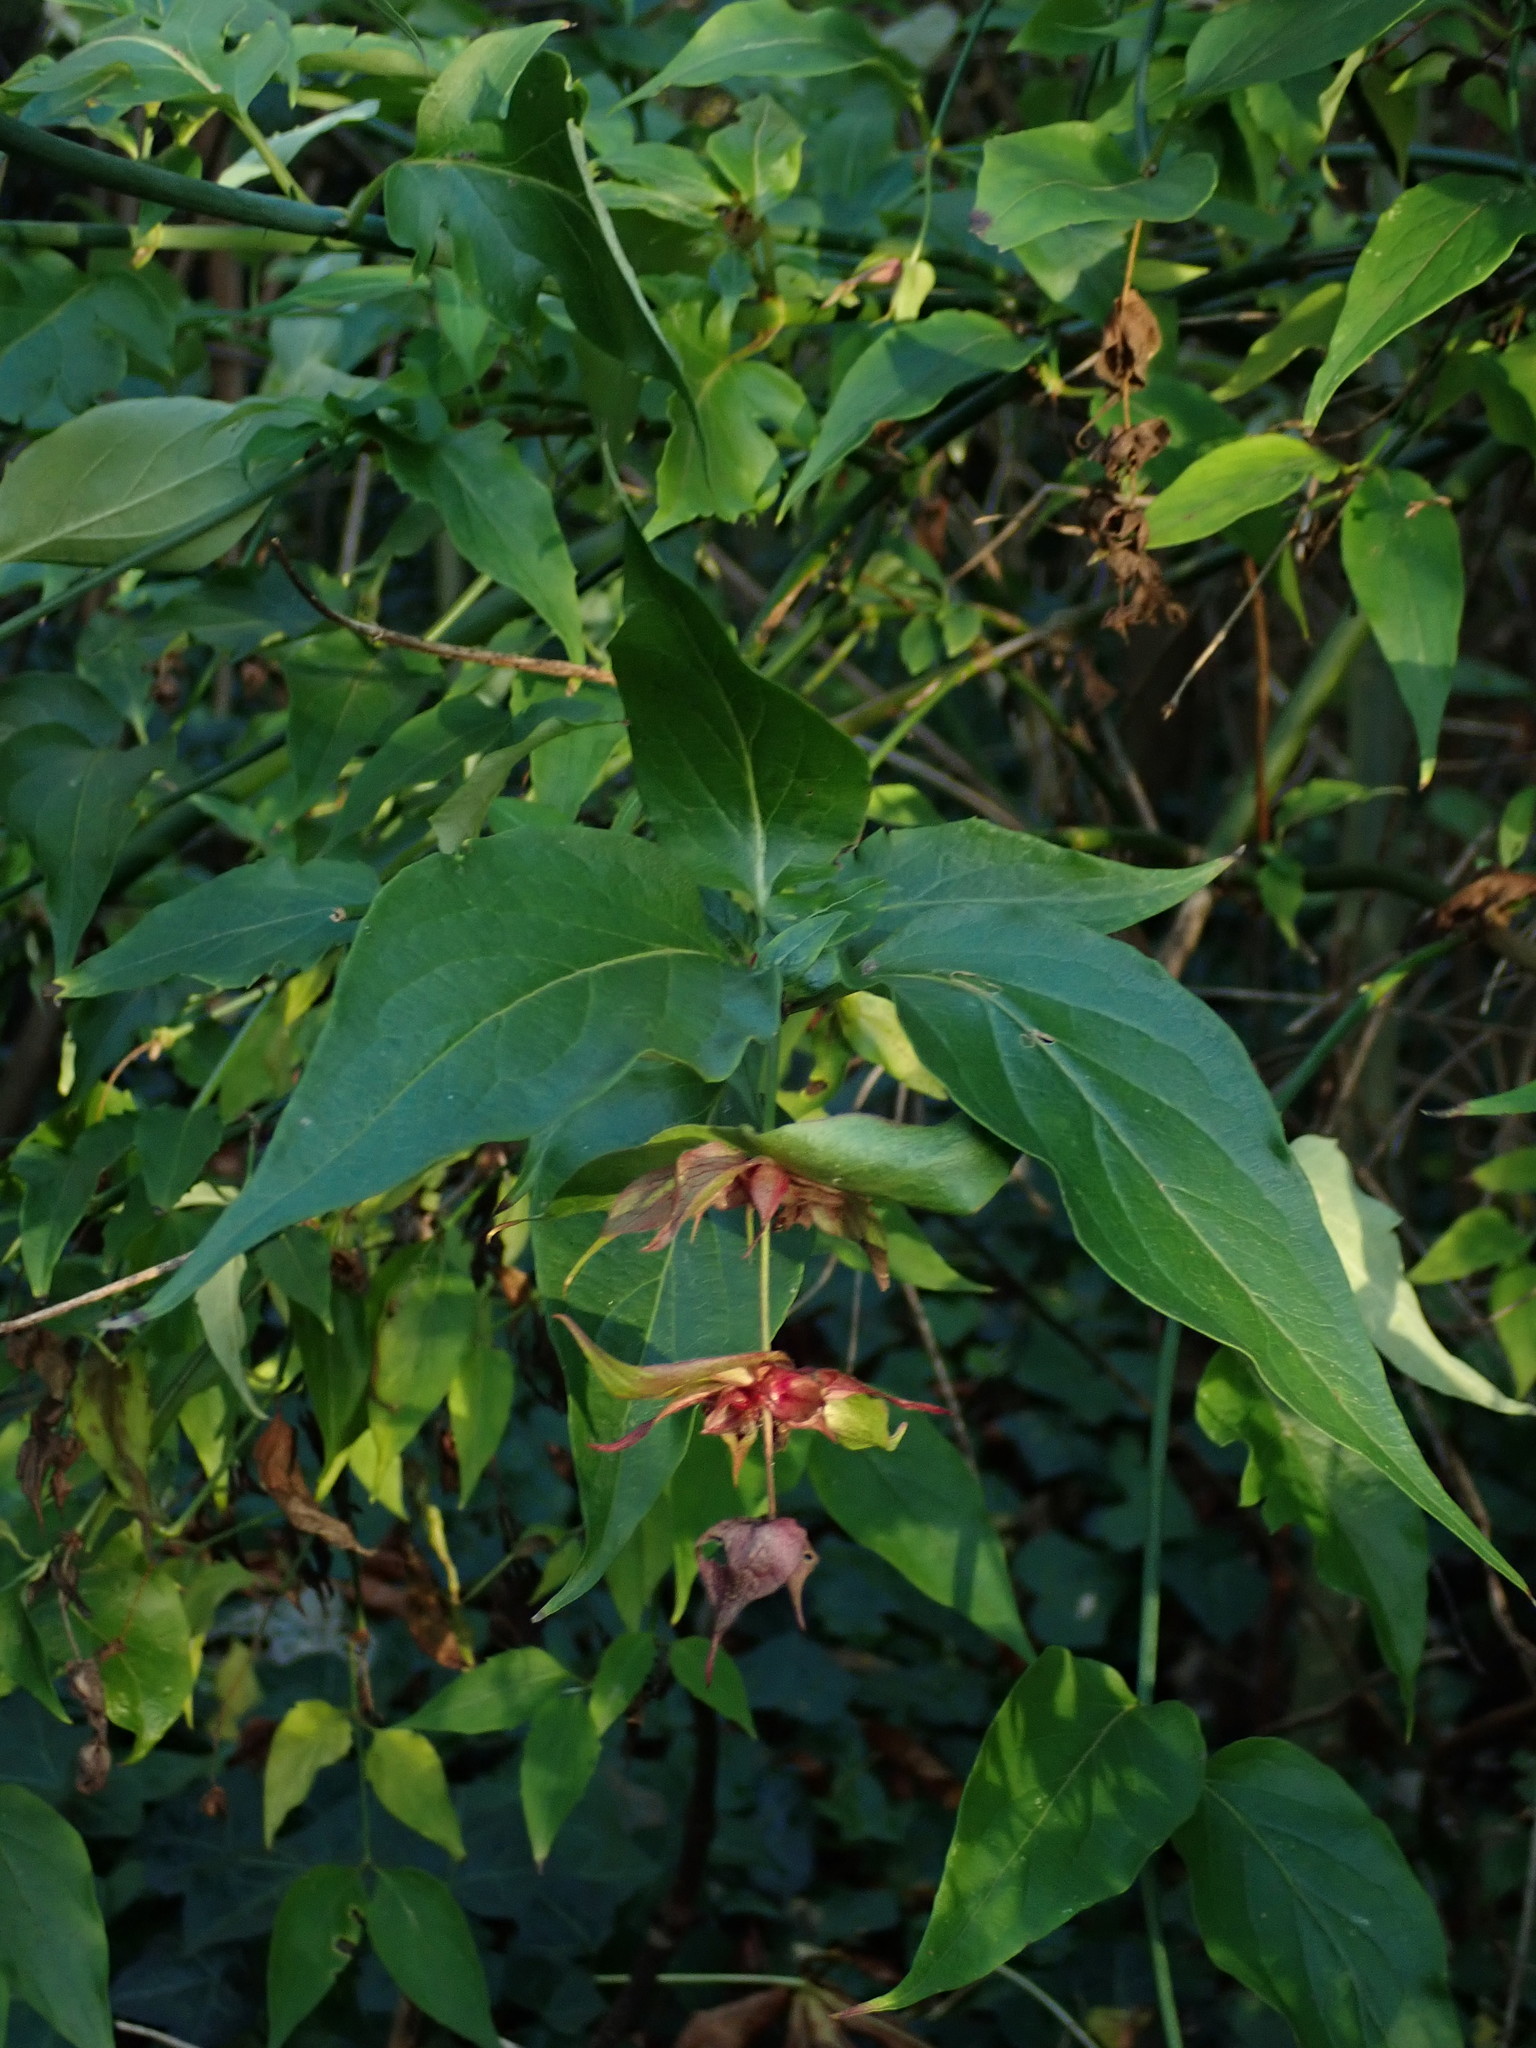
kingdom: Plantae
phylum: Tracheophyta
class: Magnoliopsida
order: Dipsacales
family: Caprifoliaceae
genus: Leycesteria
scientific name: Leycesteria formosa
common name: Himalayan honeysuckle
